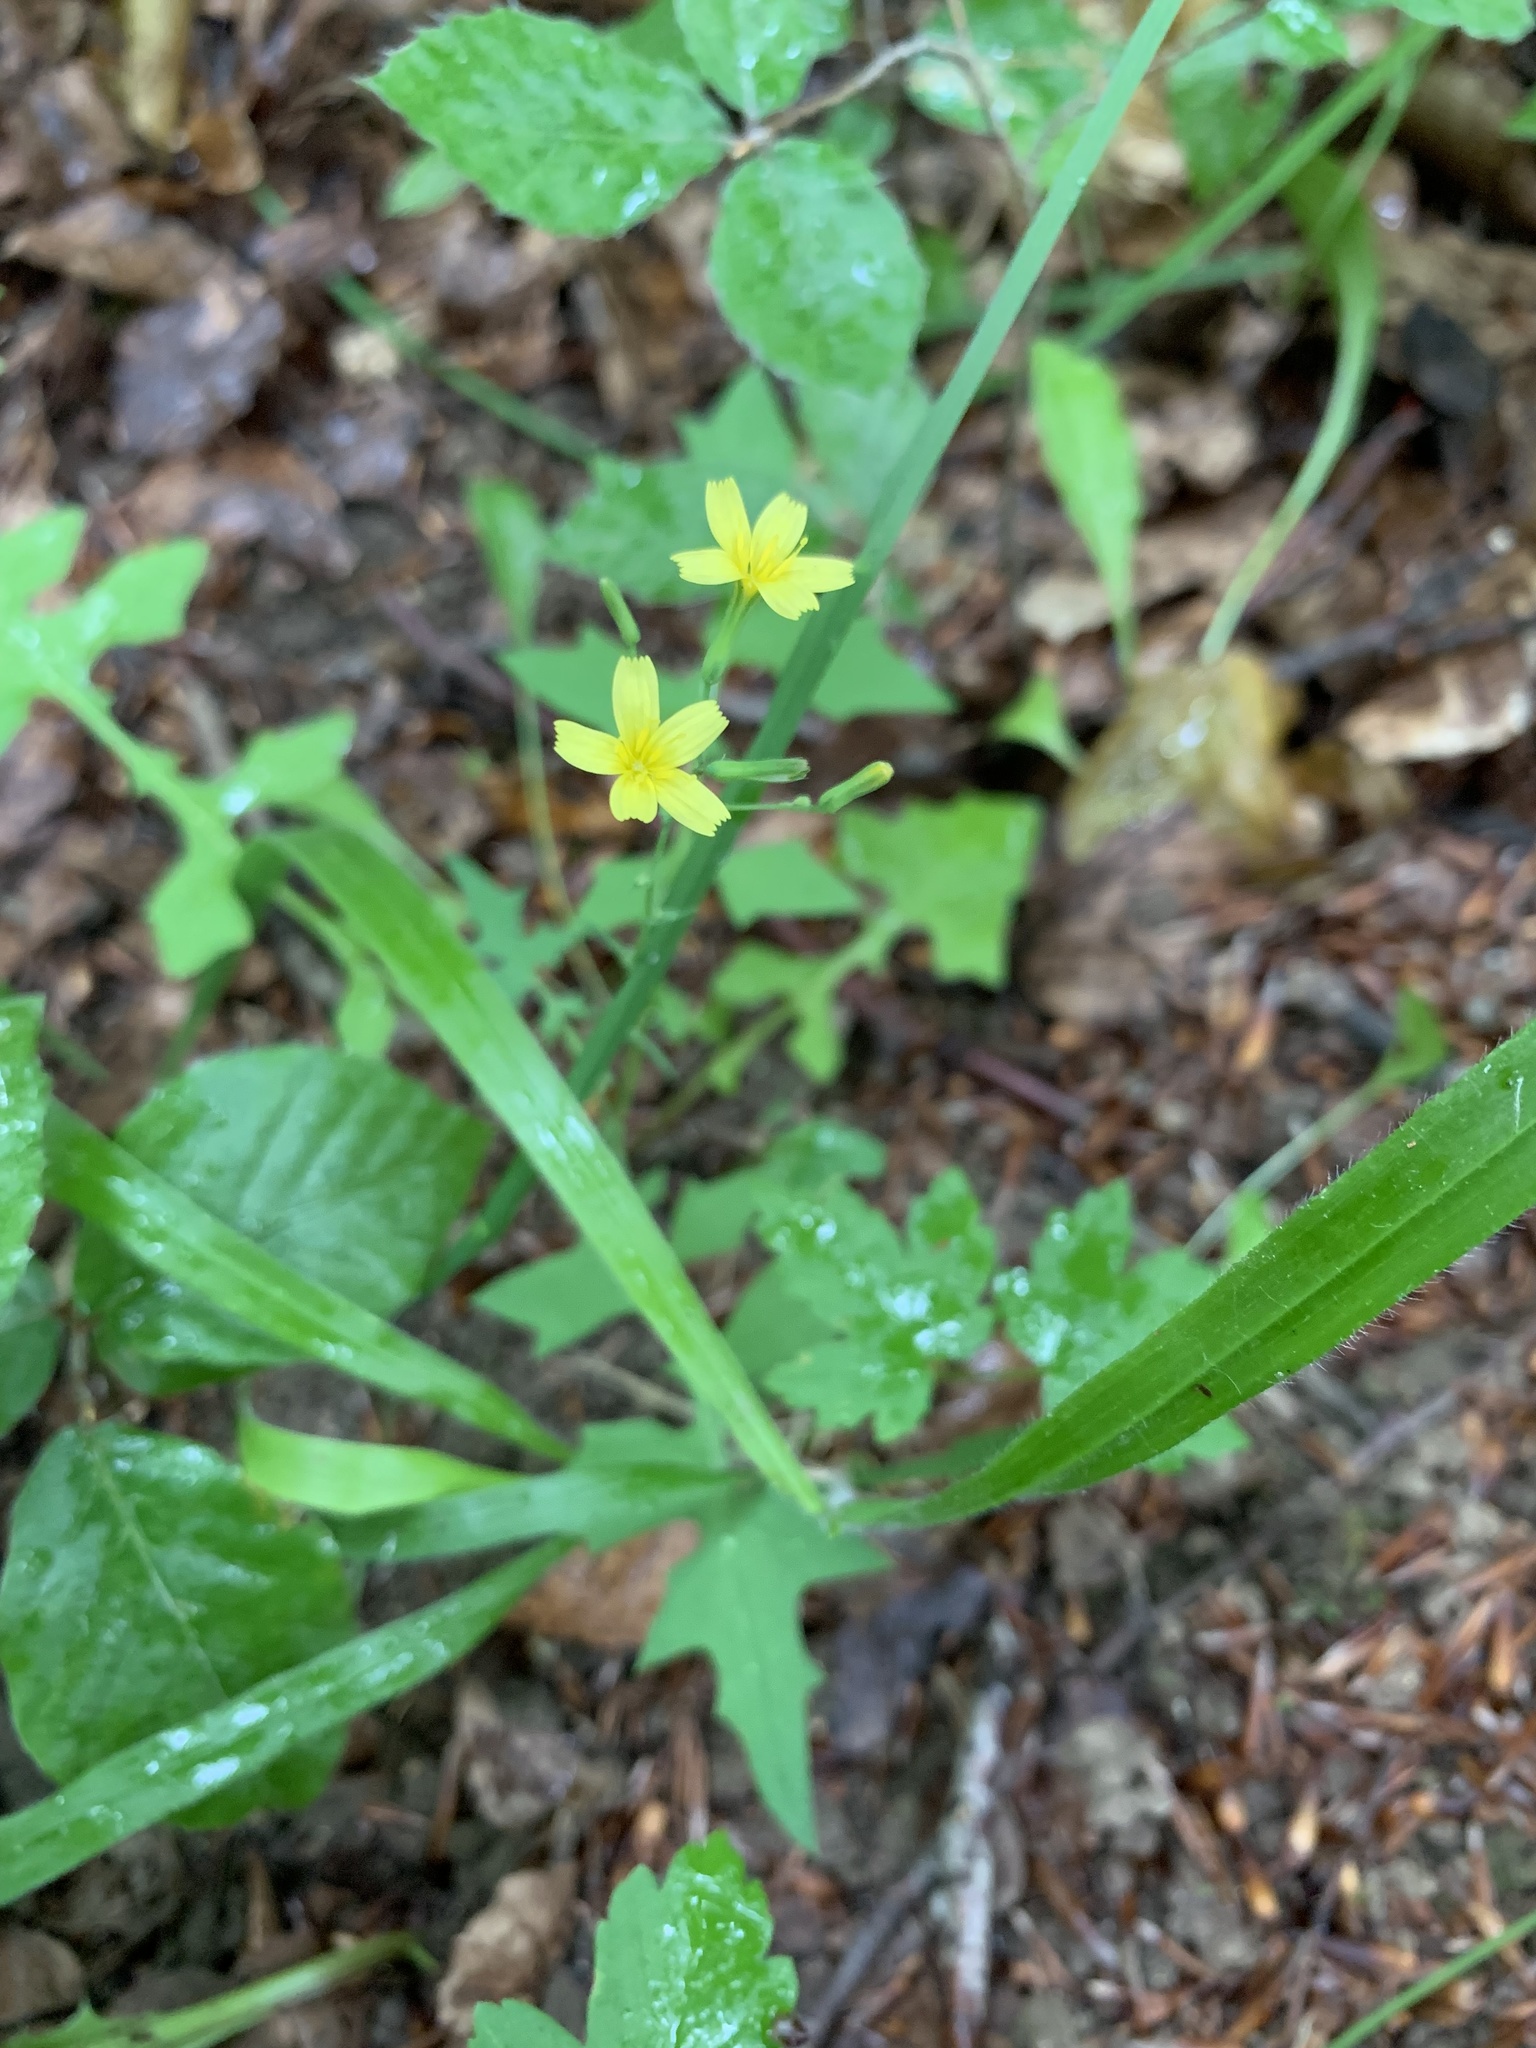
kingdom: Plantae
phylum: Tracheophyta
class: Magnoliopsida
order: Asterales
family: Asteraceae
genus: Mycelis
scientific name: Mycelis muralis
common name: Wall lettuce
